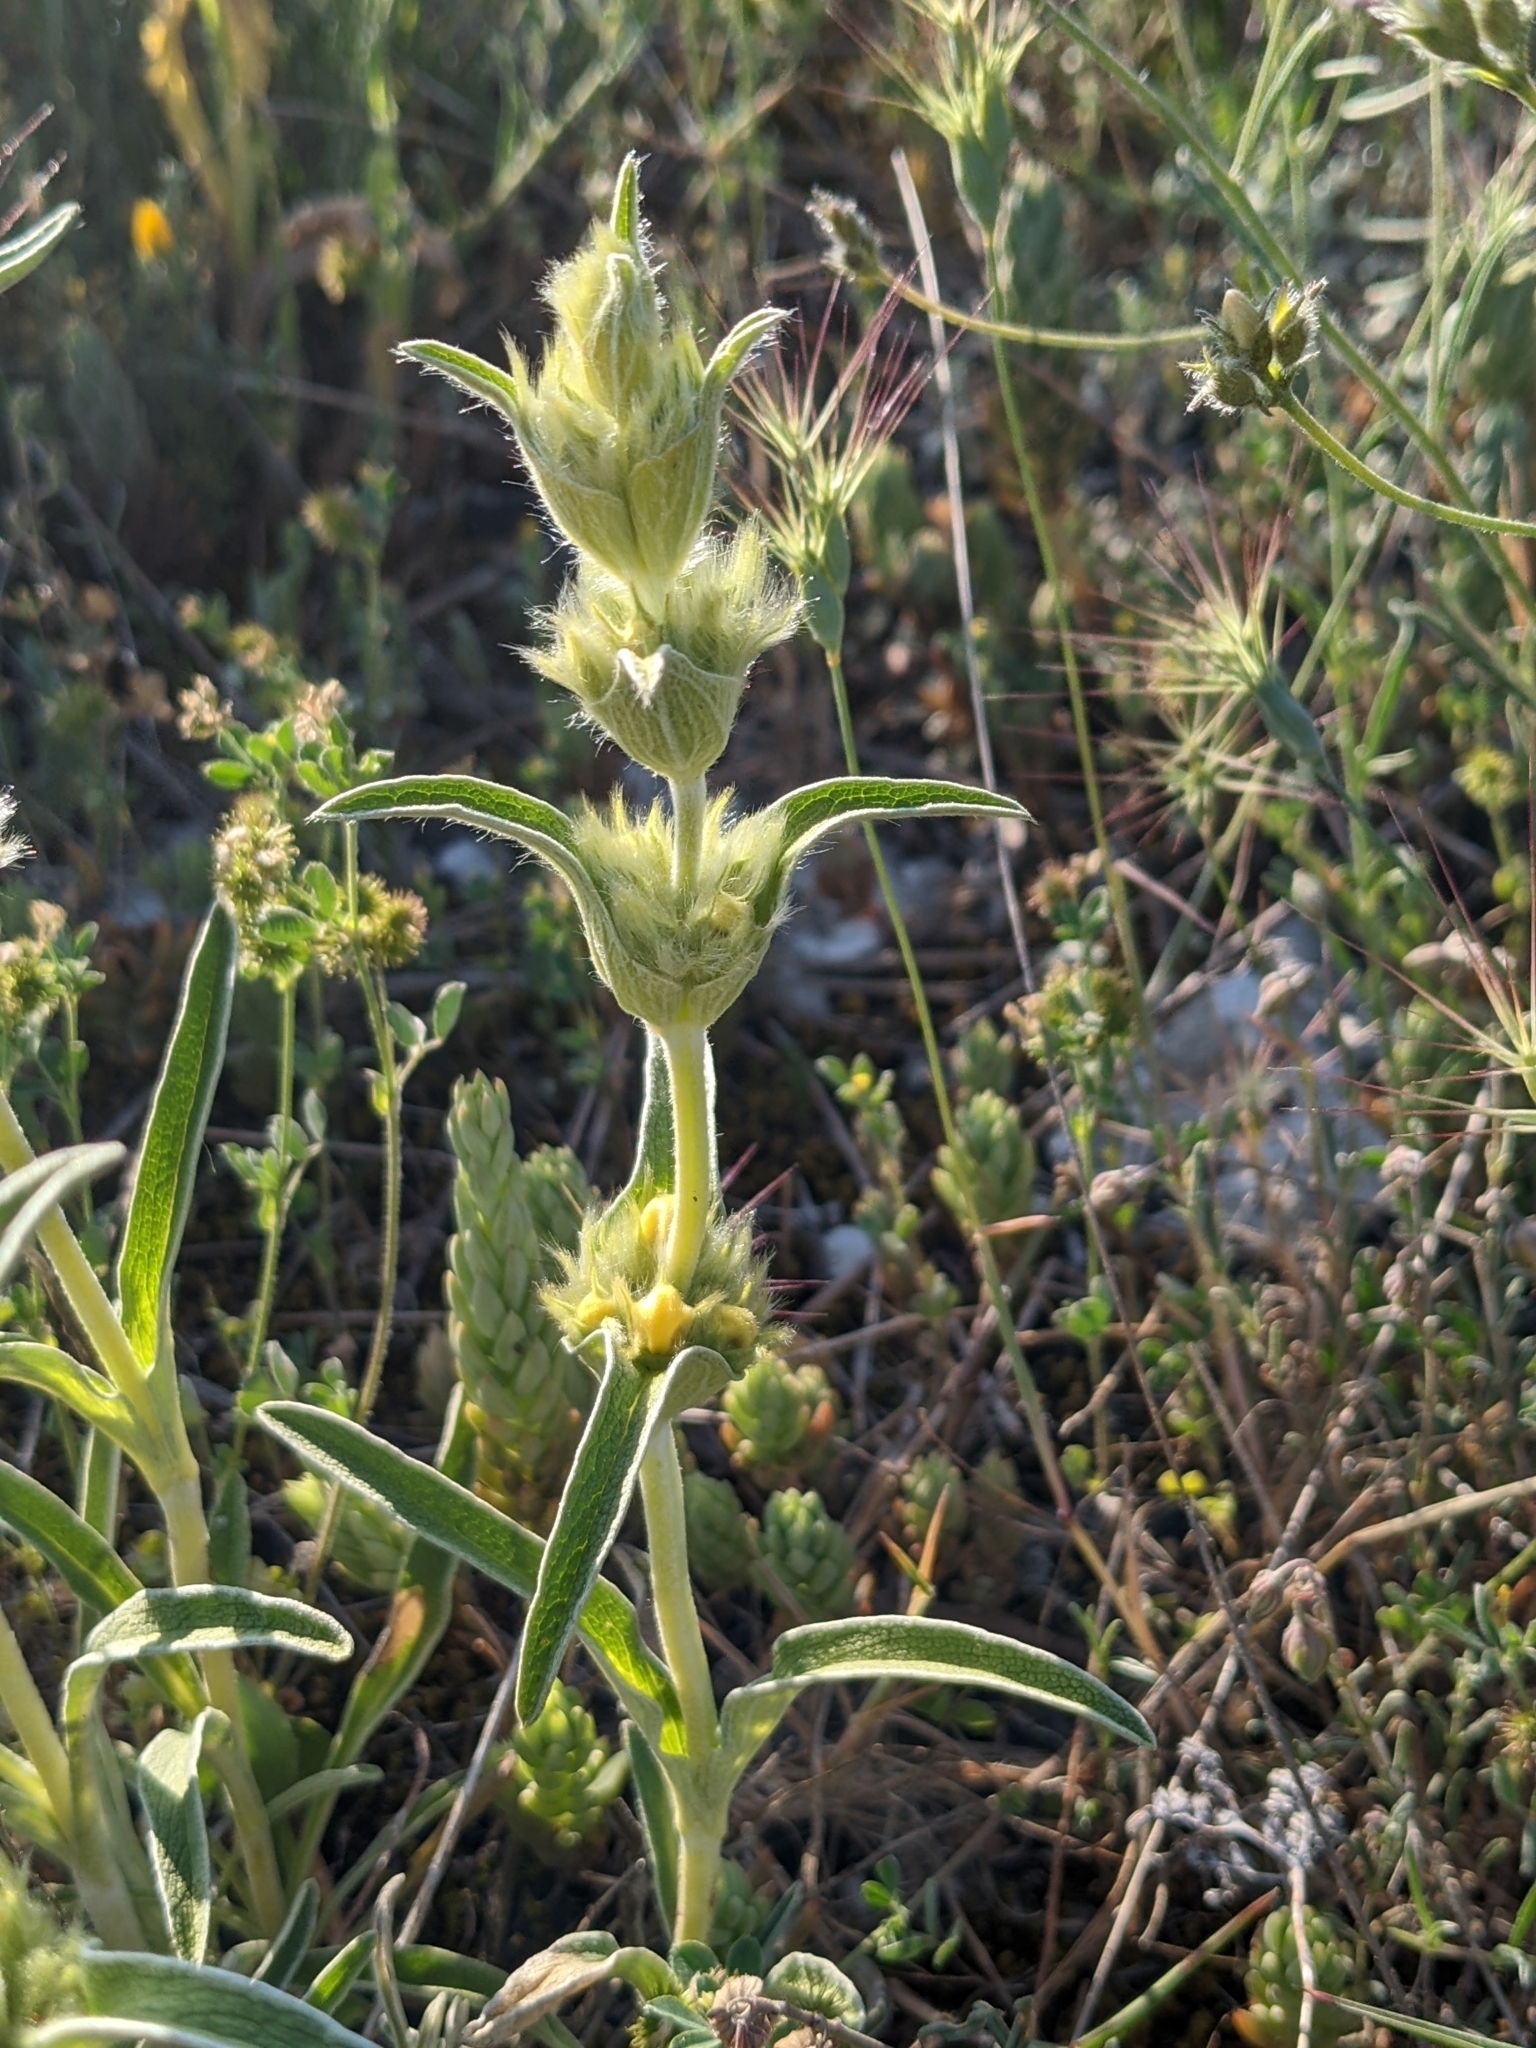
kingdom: Plantae
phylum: Tracheophyta
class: Magnoliopsida
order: Lamiales
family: Lamiaceae
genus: Phlomis
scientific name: Phlomis lychnitis
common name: Lampwickplant
